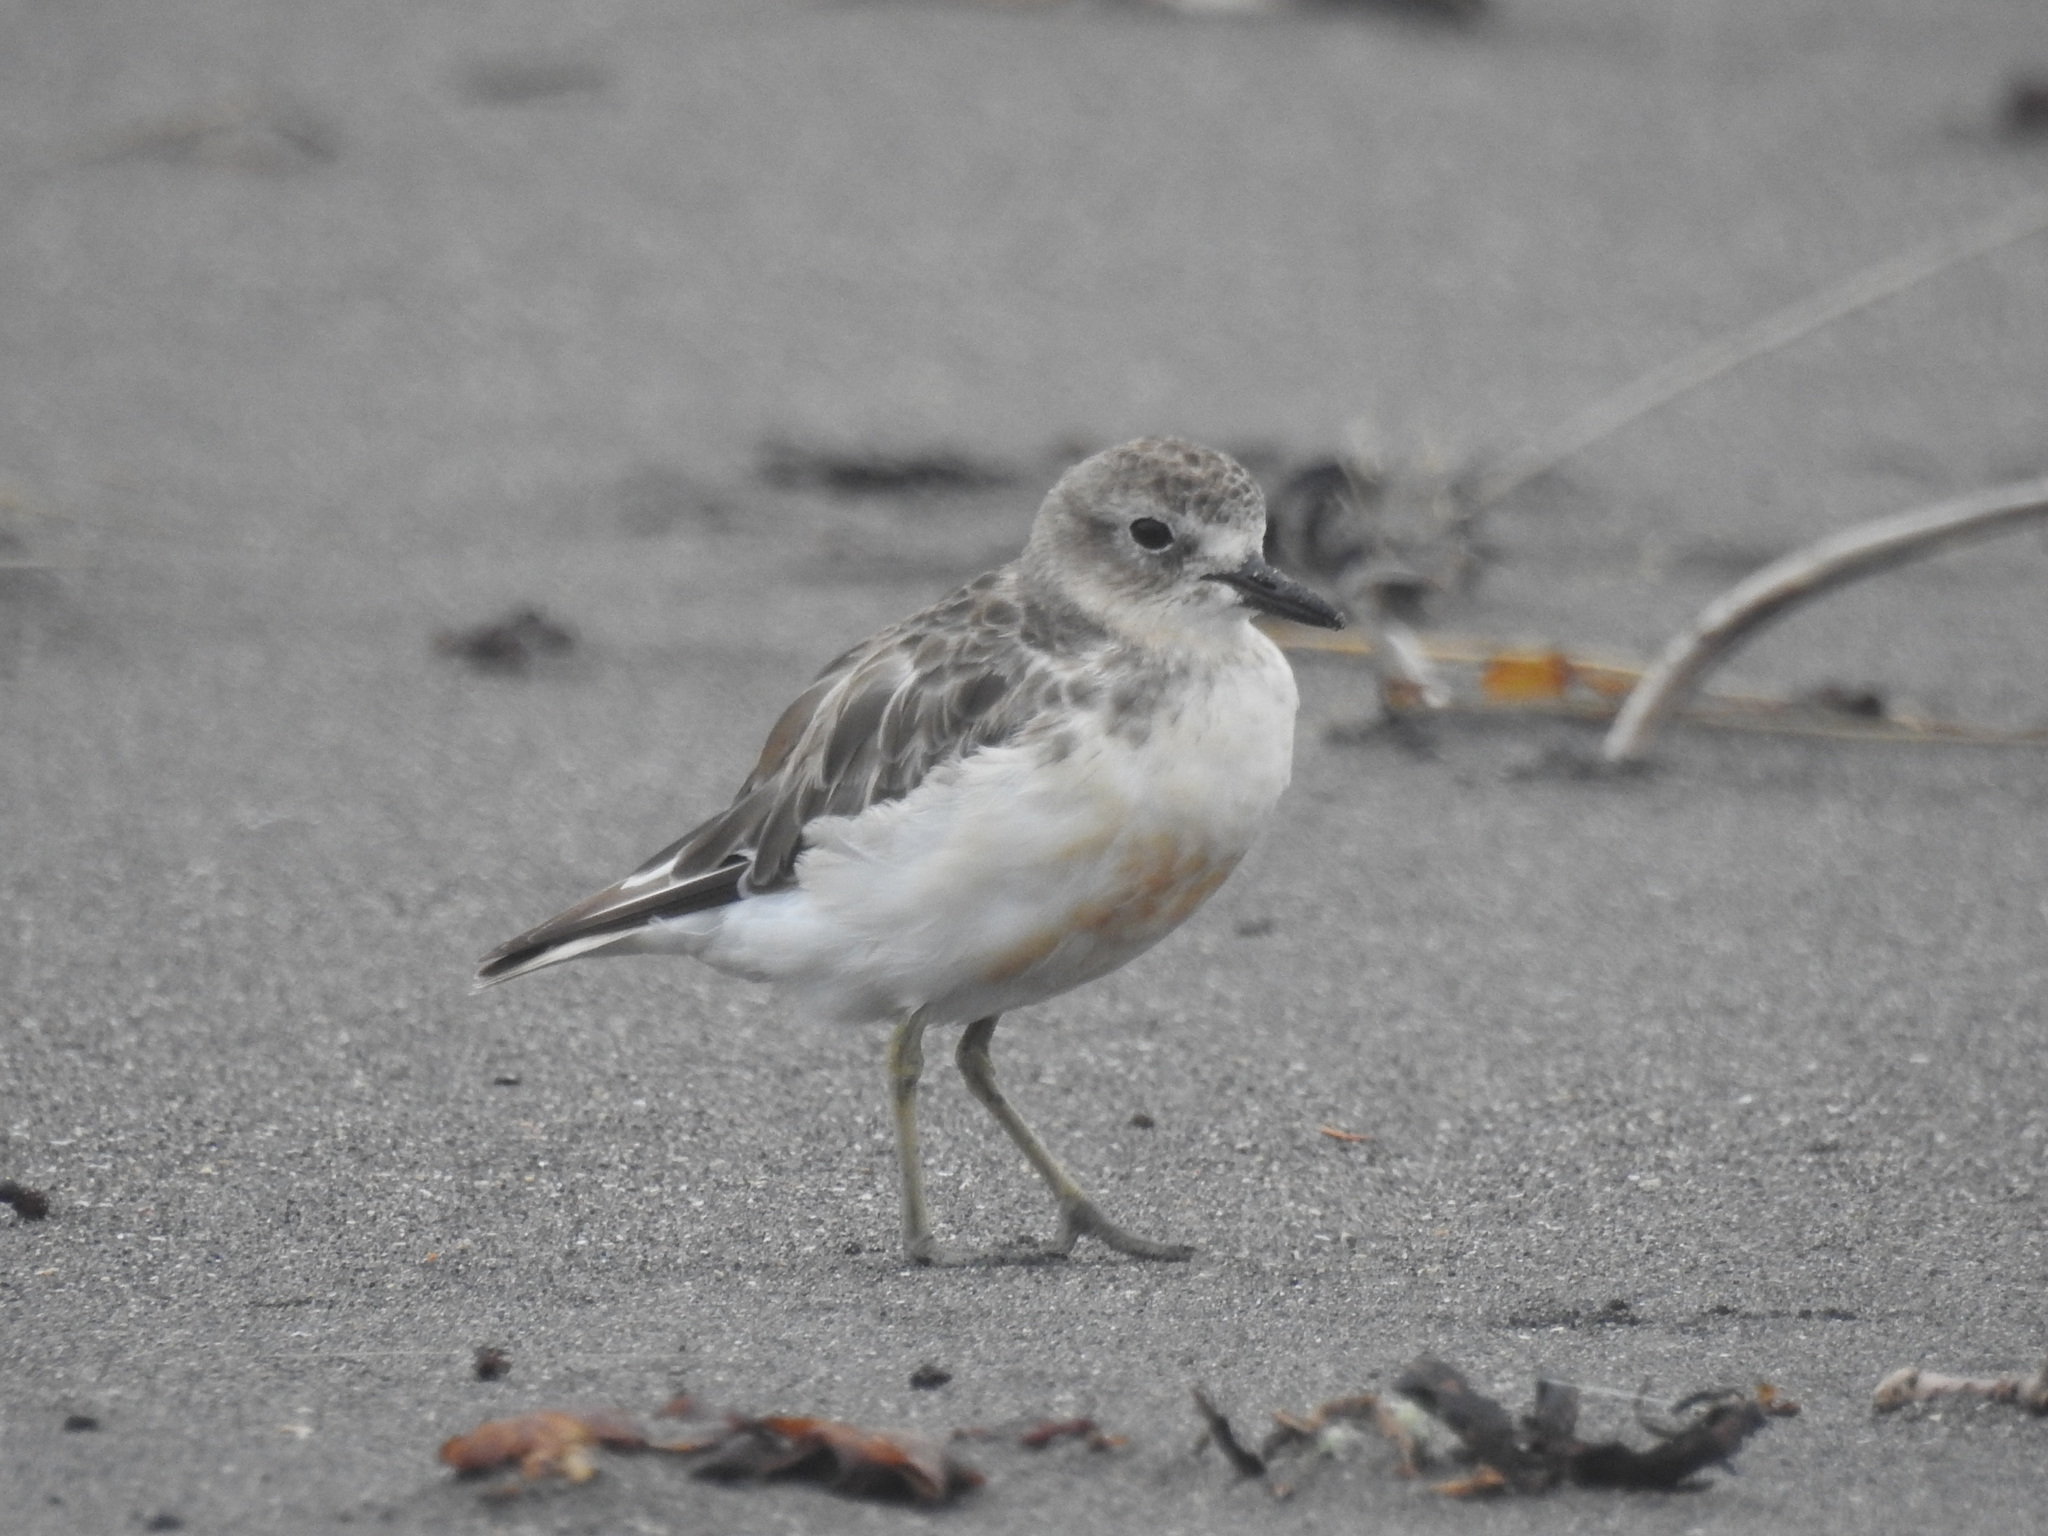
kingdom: Animalia
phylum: Chordata
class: Aves
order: Charadriiformes
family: Charadriidae
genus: Anarhynchus
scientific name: Anarhynchus
